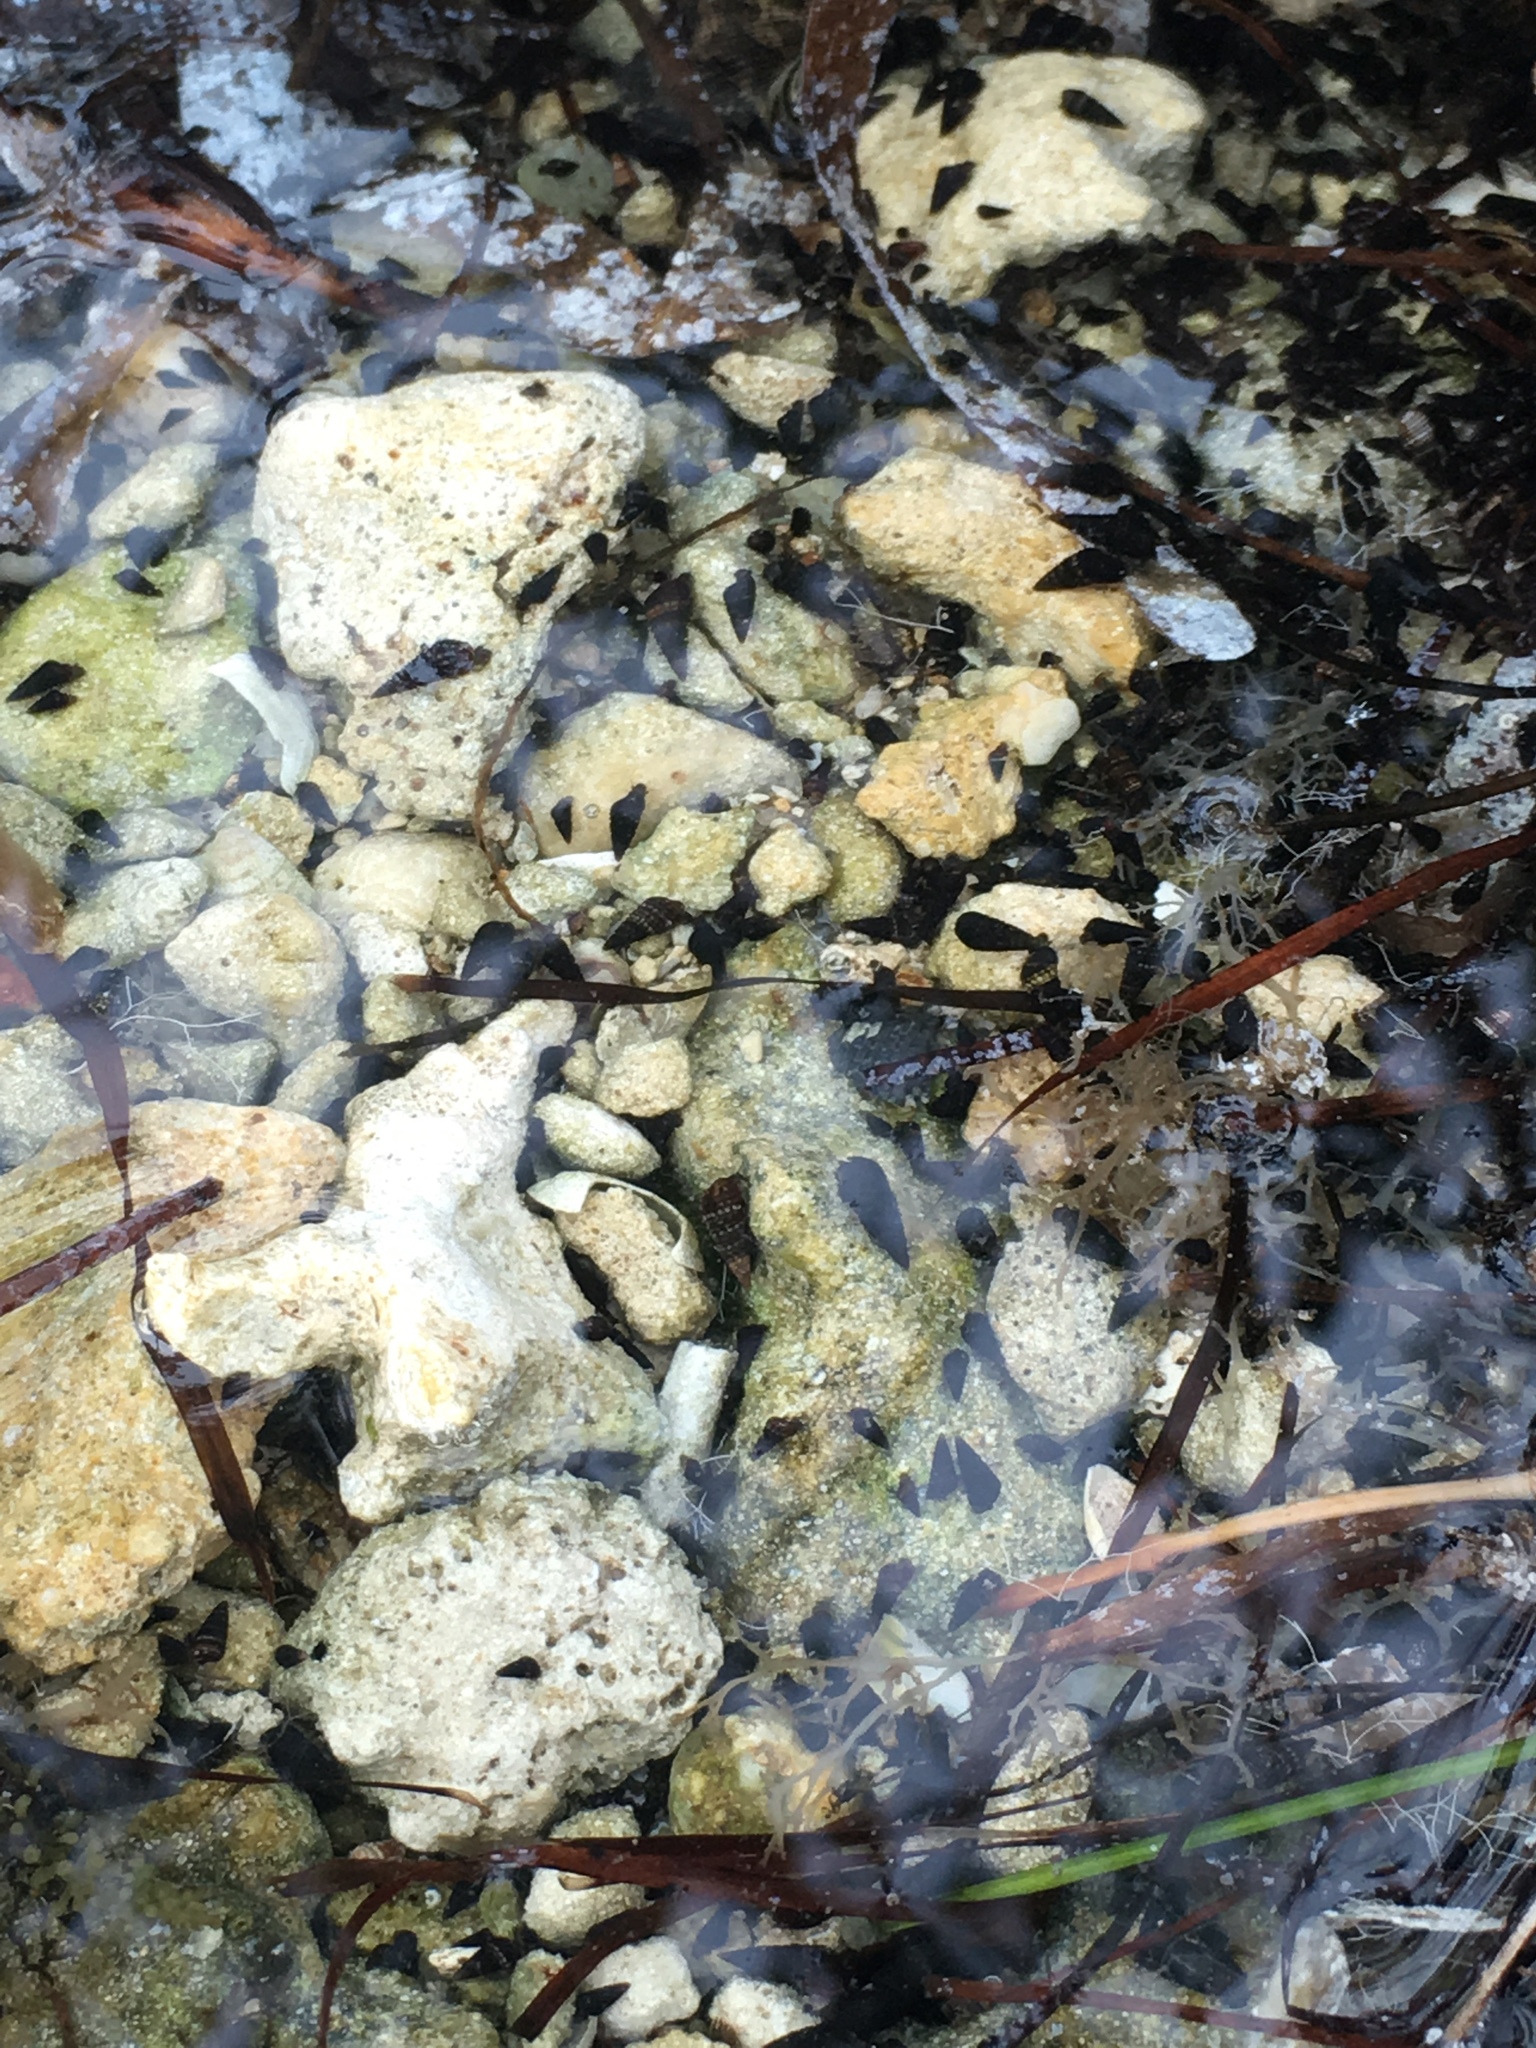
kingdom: Animalia
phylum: Mollusca
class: Gastropoda
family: Batillariidae
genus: Lampanella
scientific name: Lampanella minima
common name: West indian false cerith
